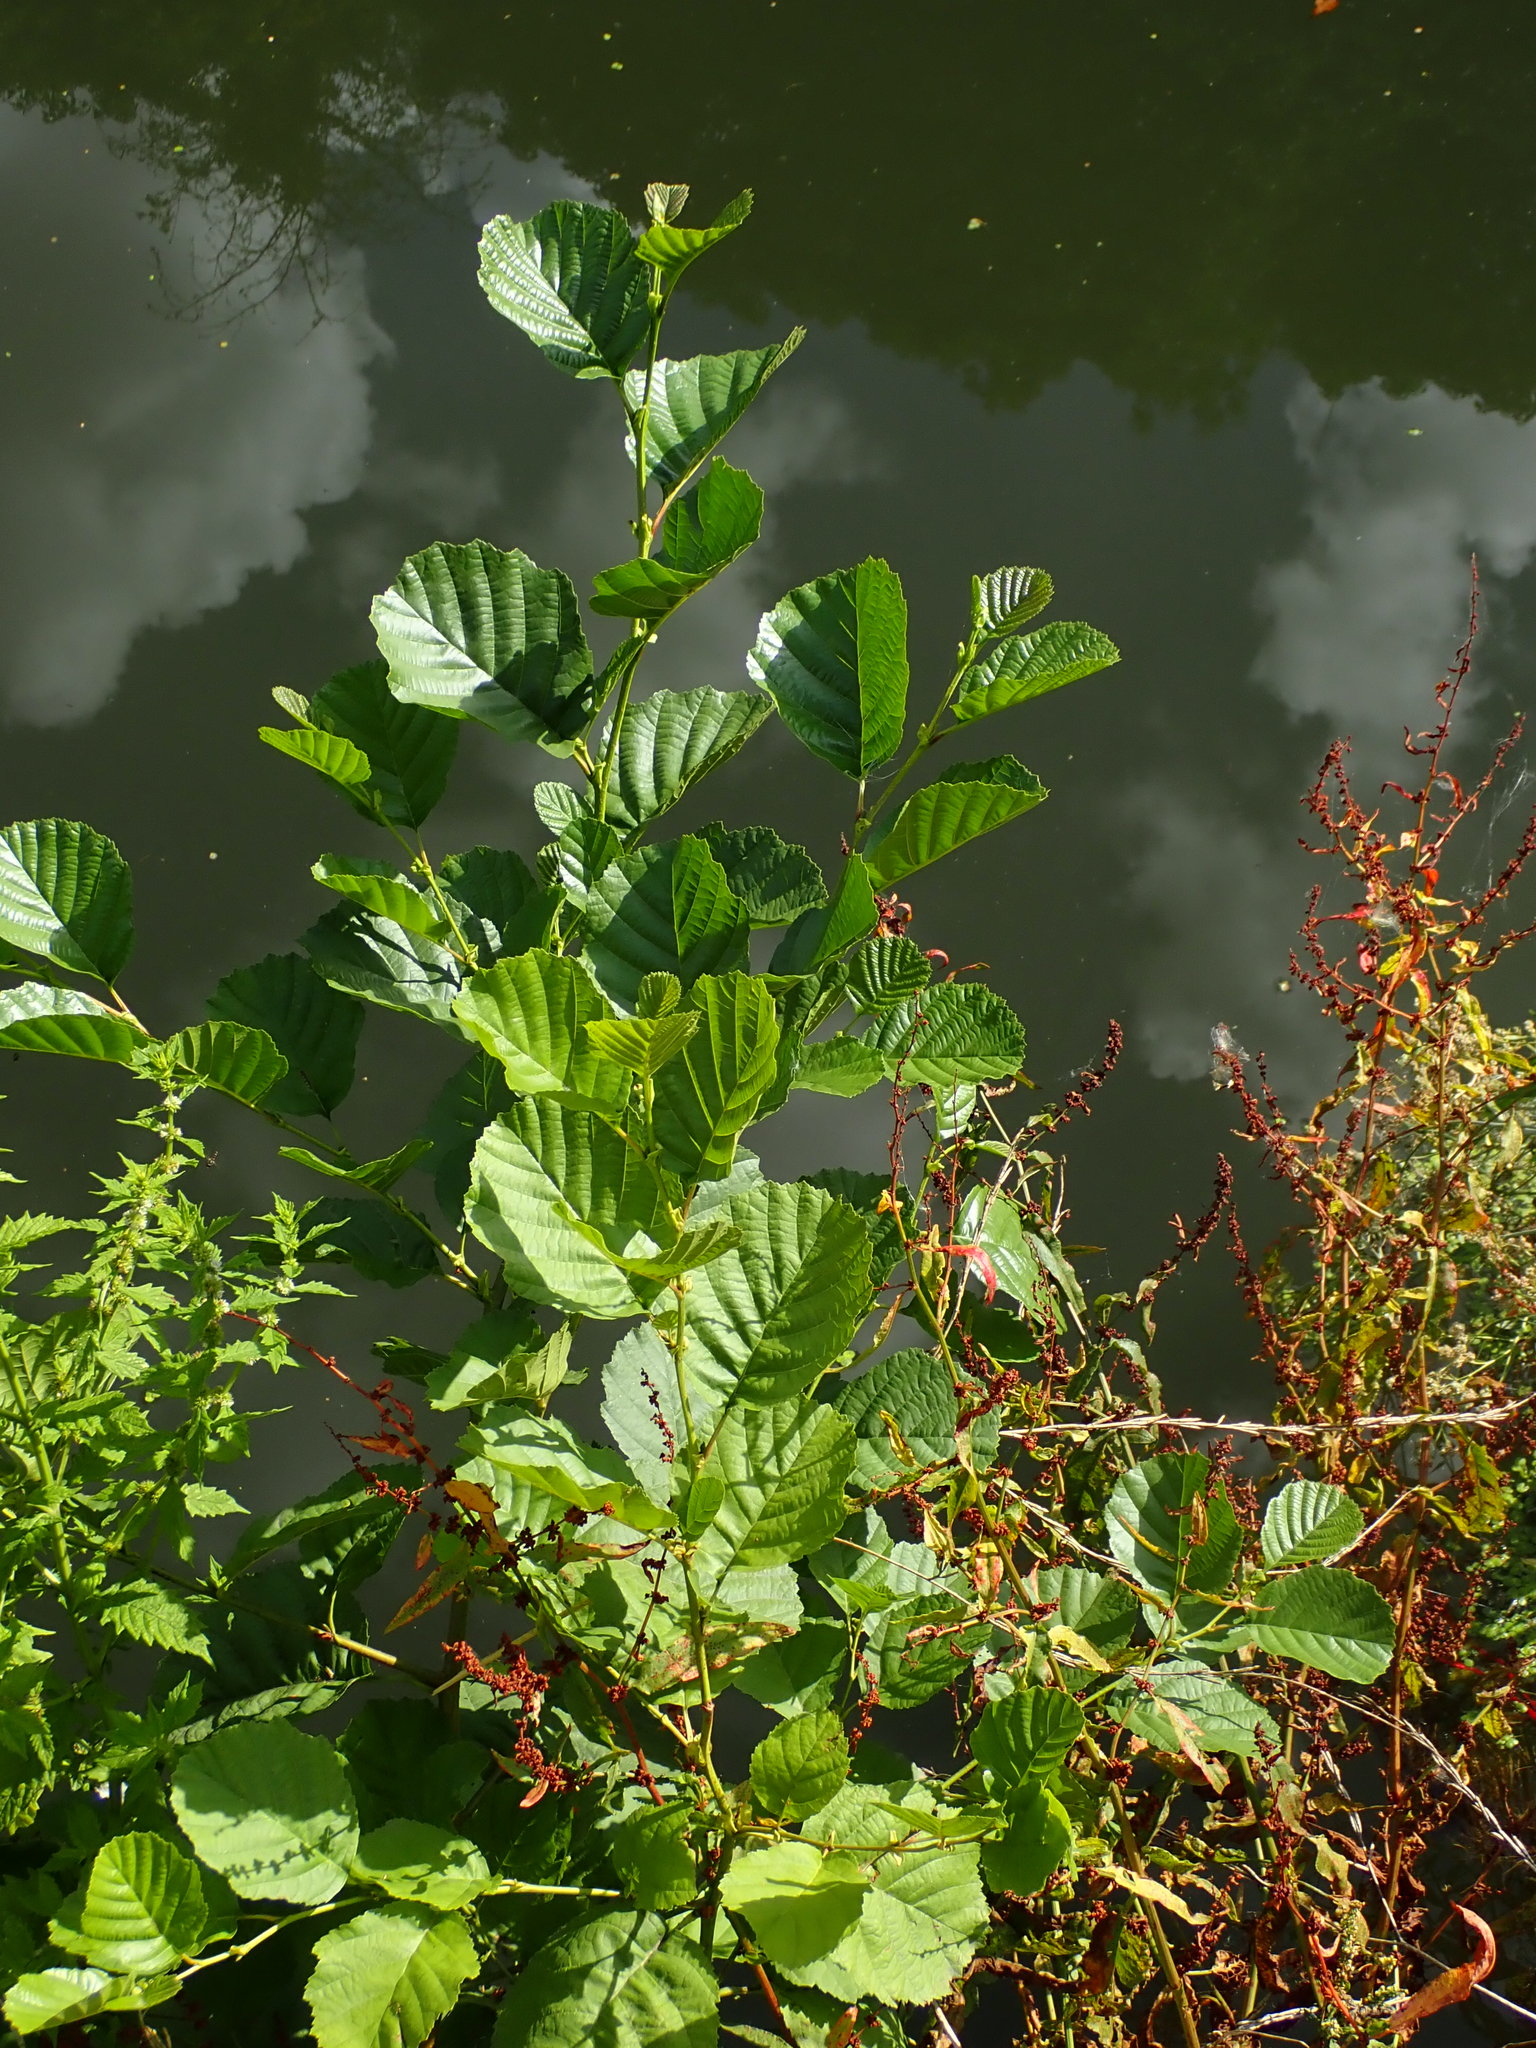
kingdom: Plantae
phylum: Tracheophyta
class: Magnoliopsida
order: Fagales
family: Betulaceae
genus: Alnus
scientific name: Alnus glutinosa
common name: Black alder
